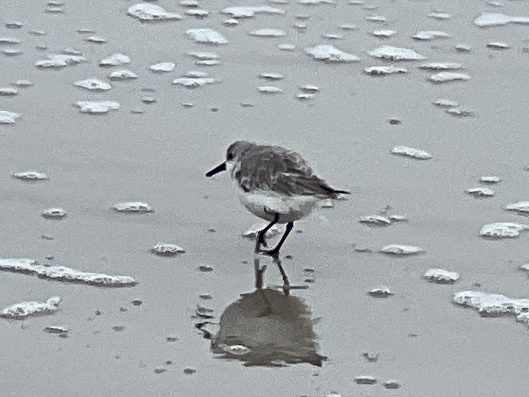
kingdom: Animalia
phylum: Chordata
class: Aves
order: Charadriiformes
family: Scolopacidae
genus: Calidris
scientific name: Calidris alba
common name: Sanderling
